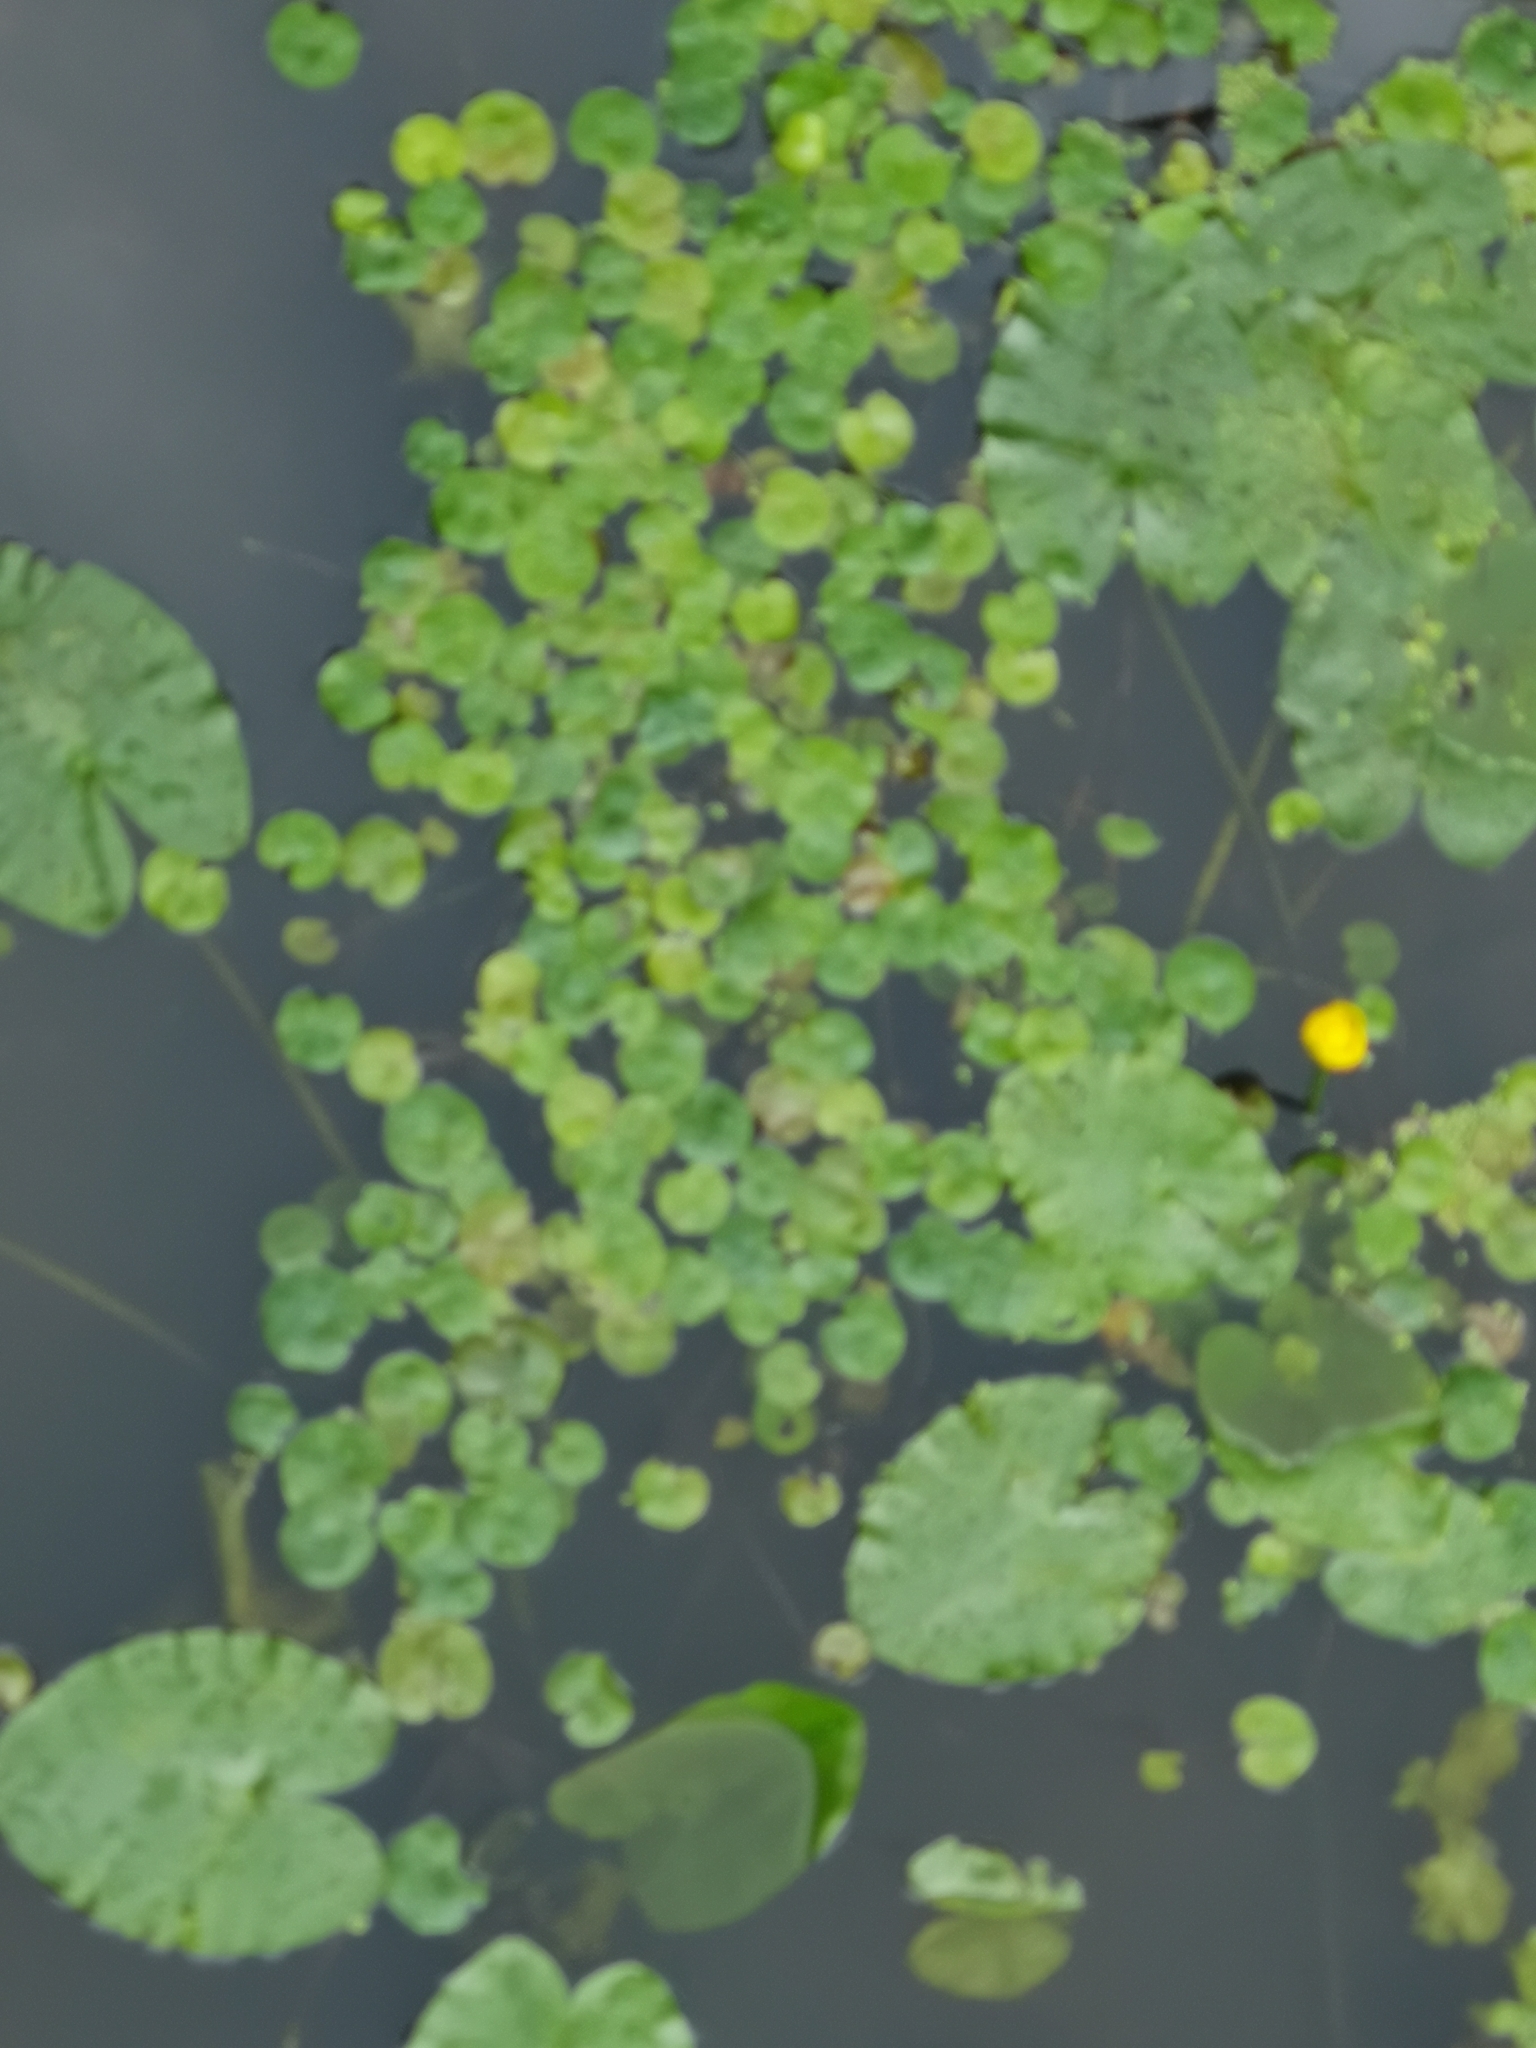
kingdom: Plantae
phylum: Tracheophyta
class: Liliopsida
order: Alismatales
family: Hydrocharitaceae
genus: Hydrocharis
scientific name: Hydrocharis morsus-ranae
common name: Frogbit
